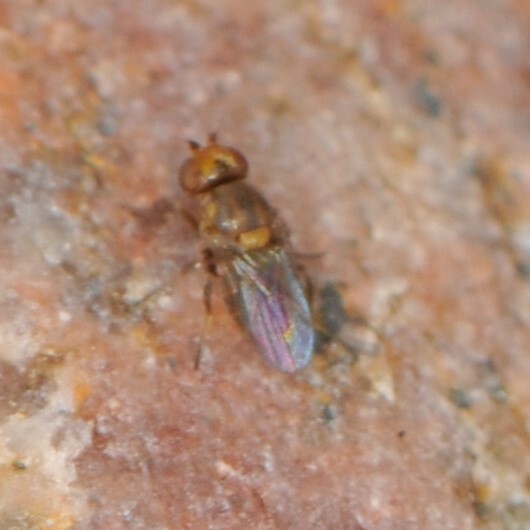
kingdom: Animalia
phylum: Arthropoda
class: Insecta
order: Diptera
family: Chloropidae
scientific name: Chloropidae
